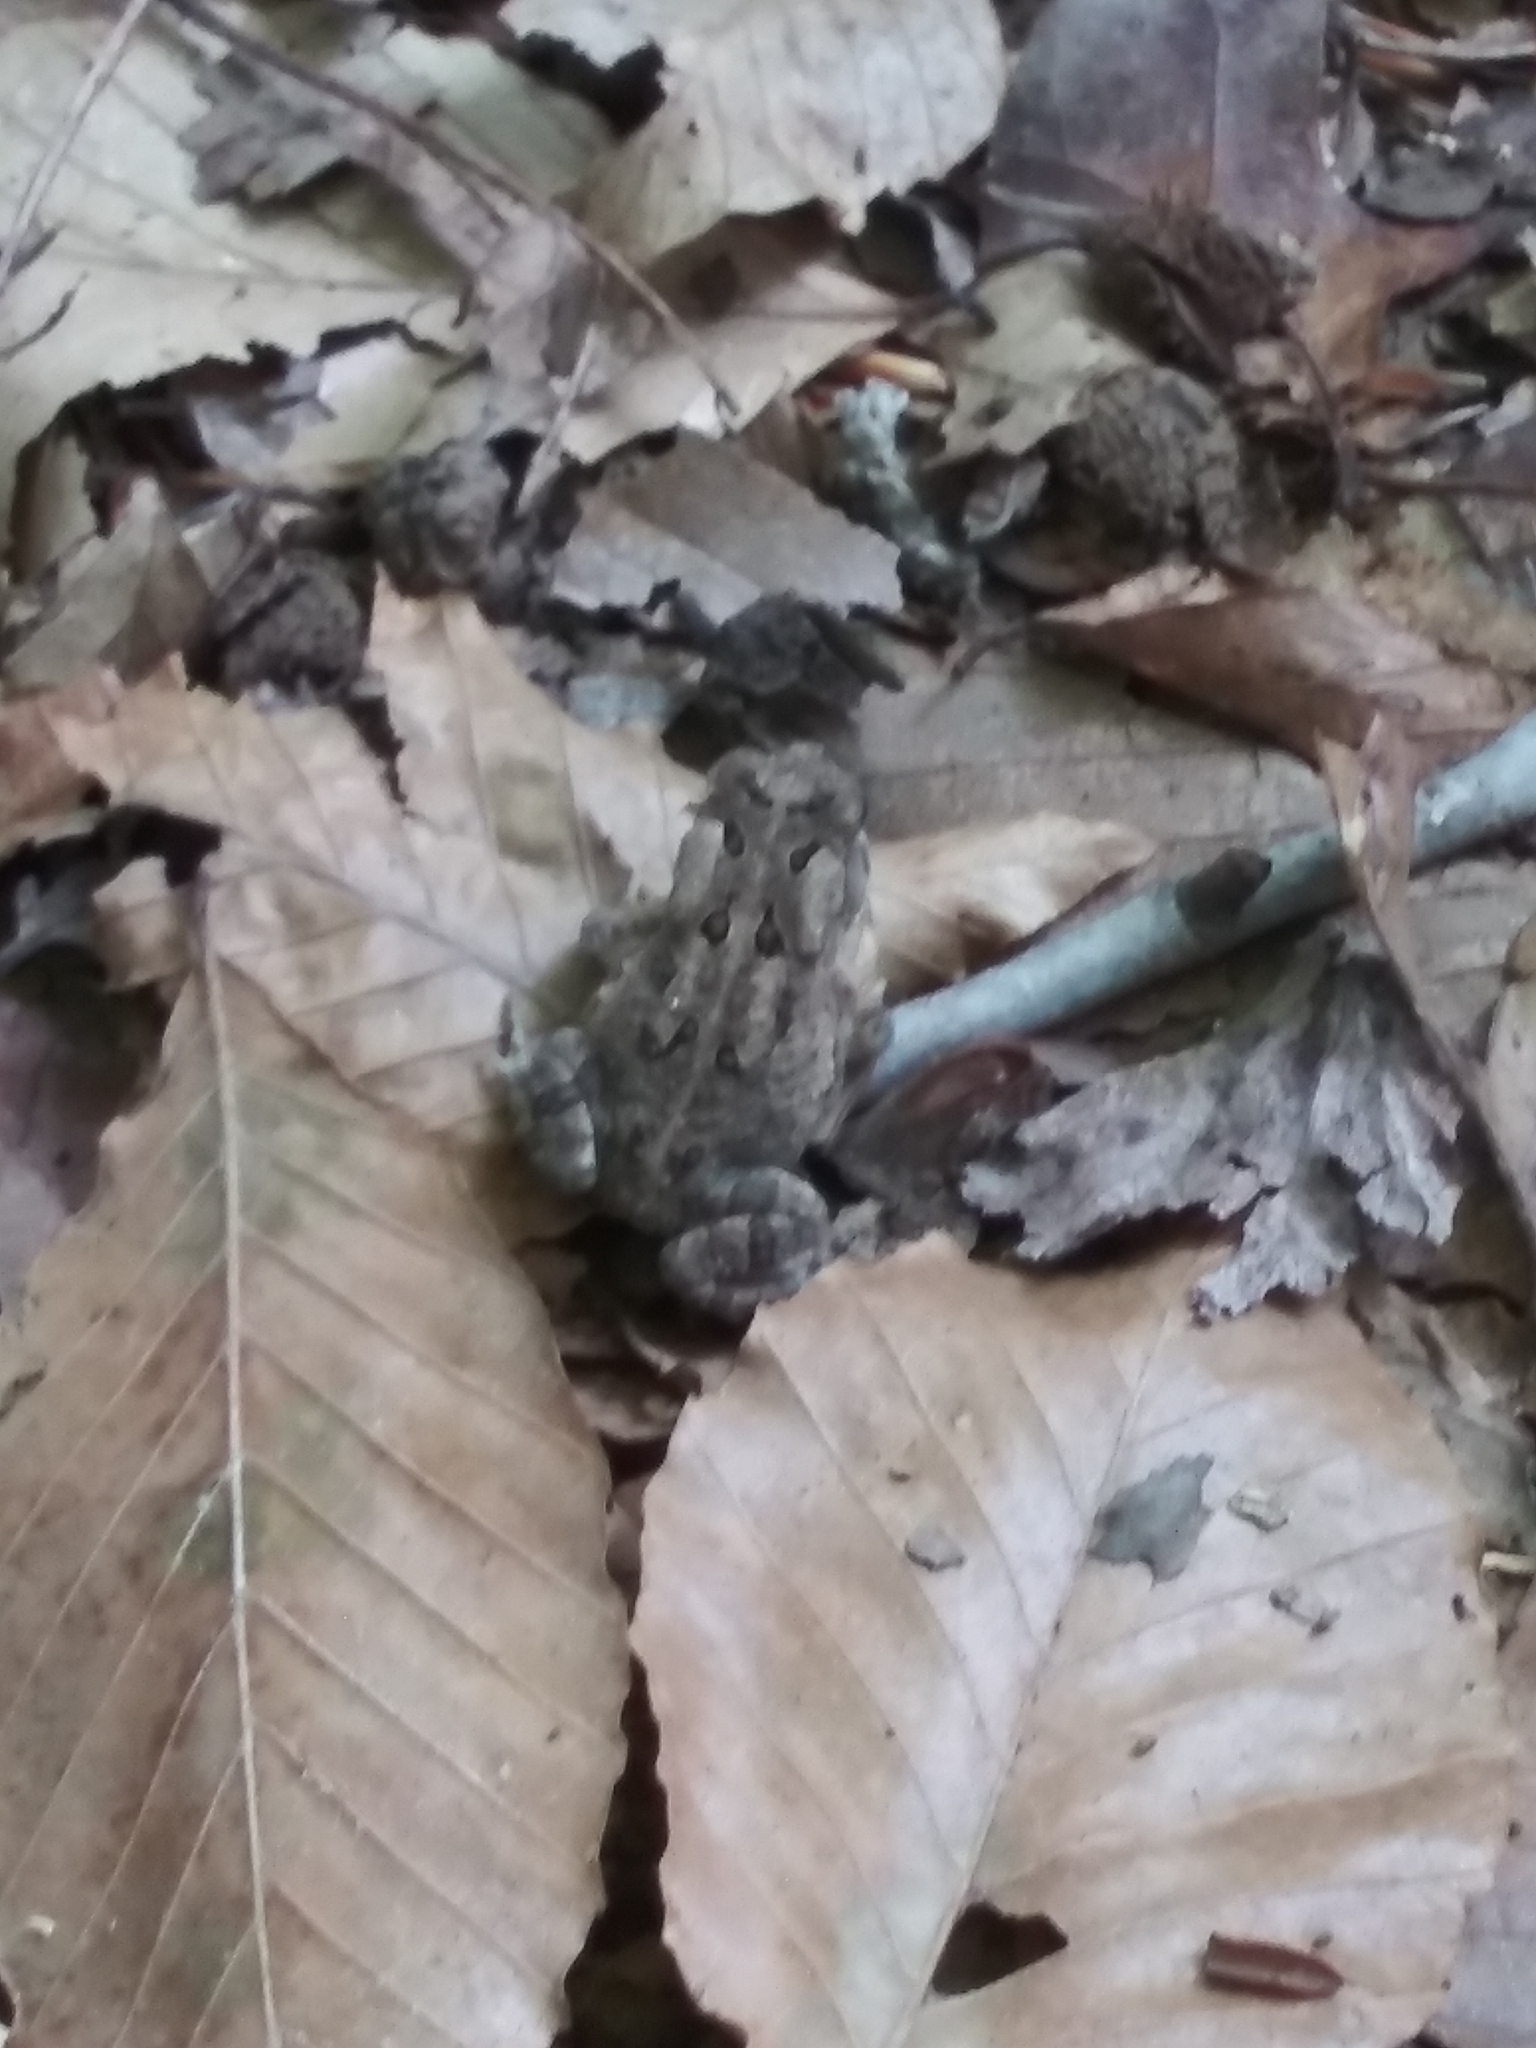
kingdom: Animalia
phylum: Chordata
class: Amphibia
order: Anura
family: Bufonidae
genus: Anaxyrus
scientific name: Anaxyrus americanus
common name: American toad
